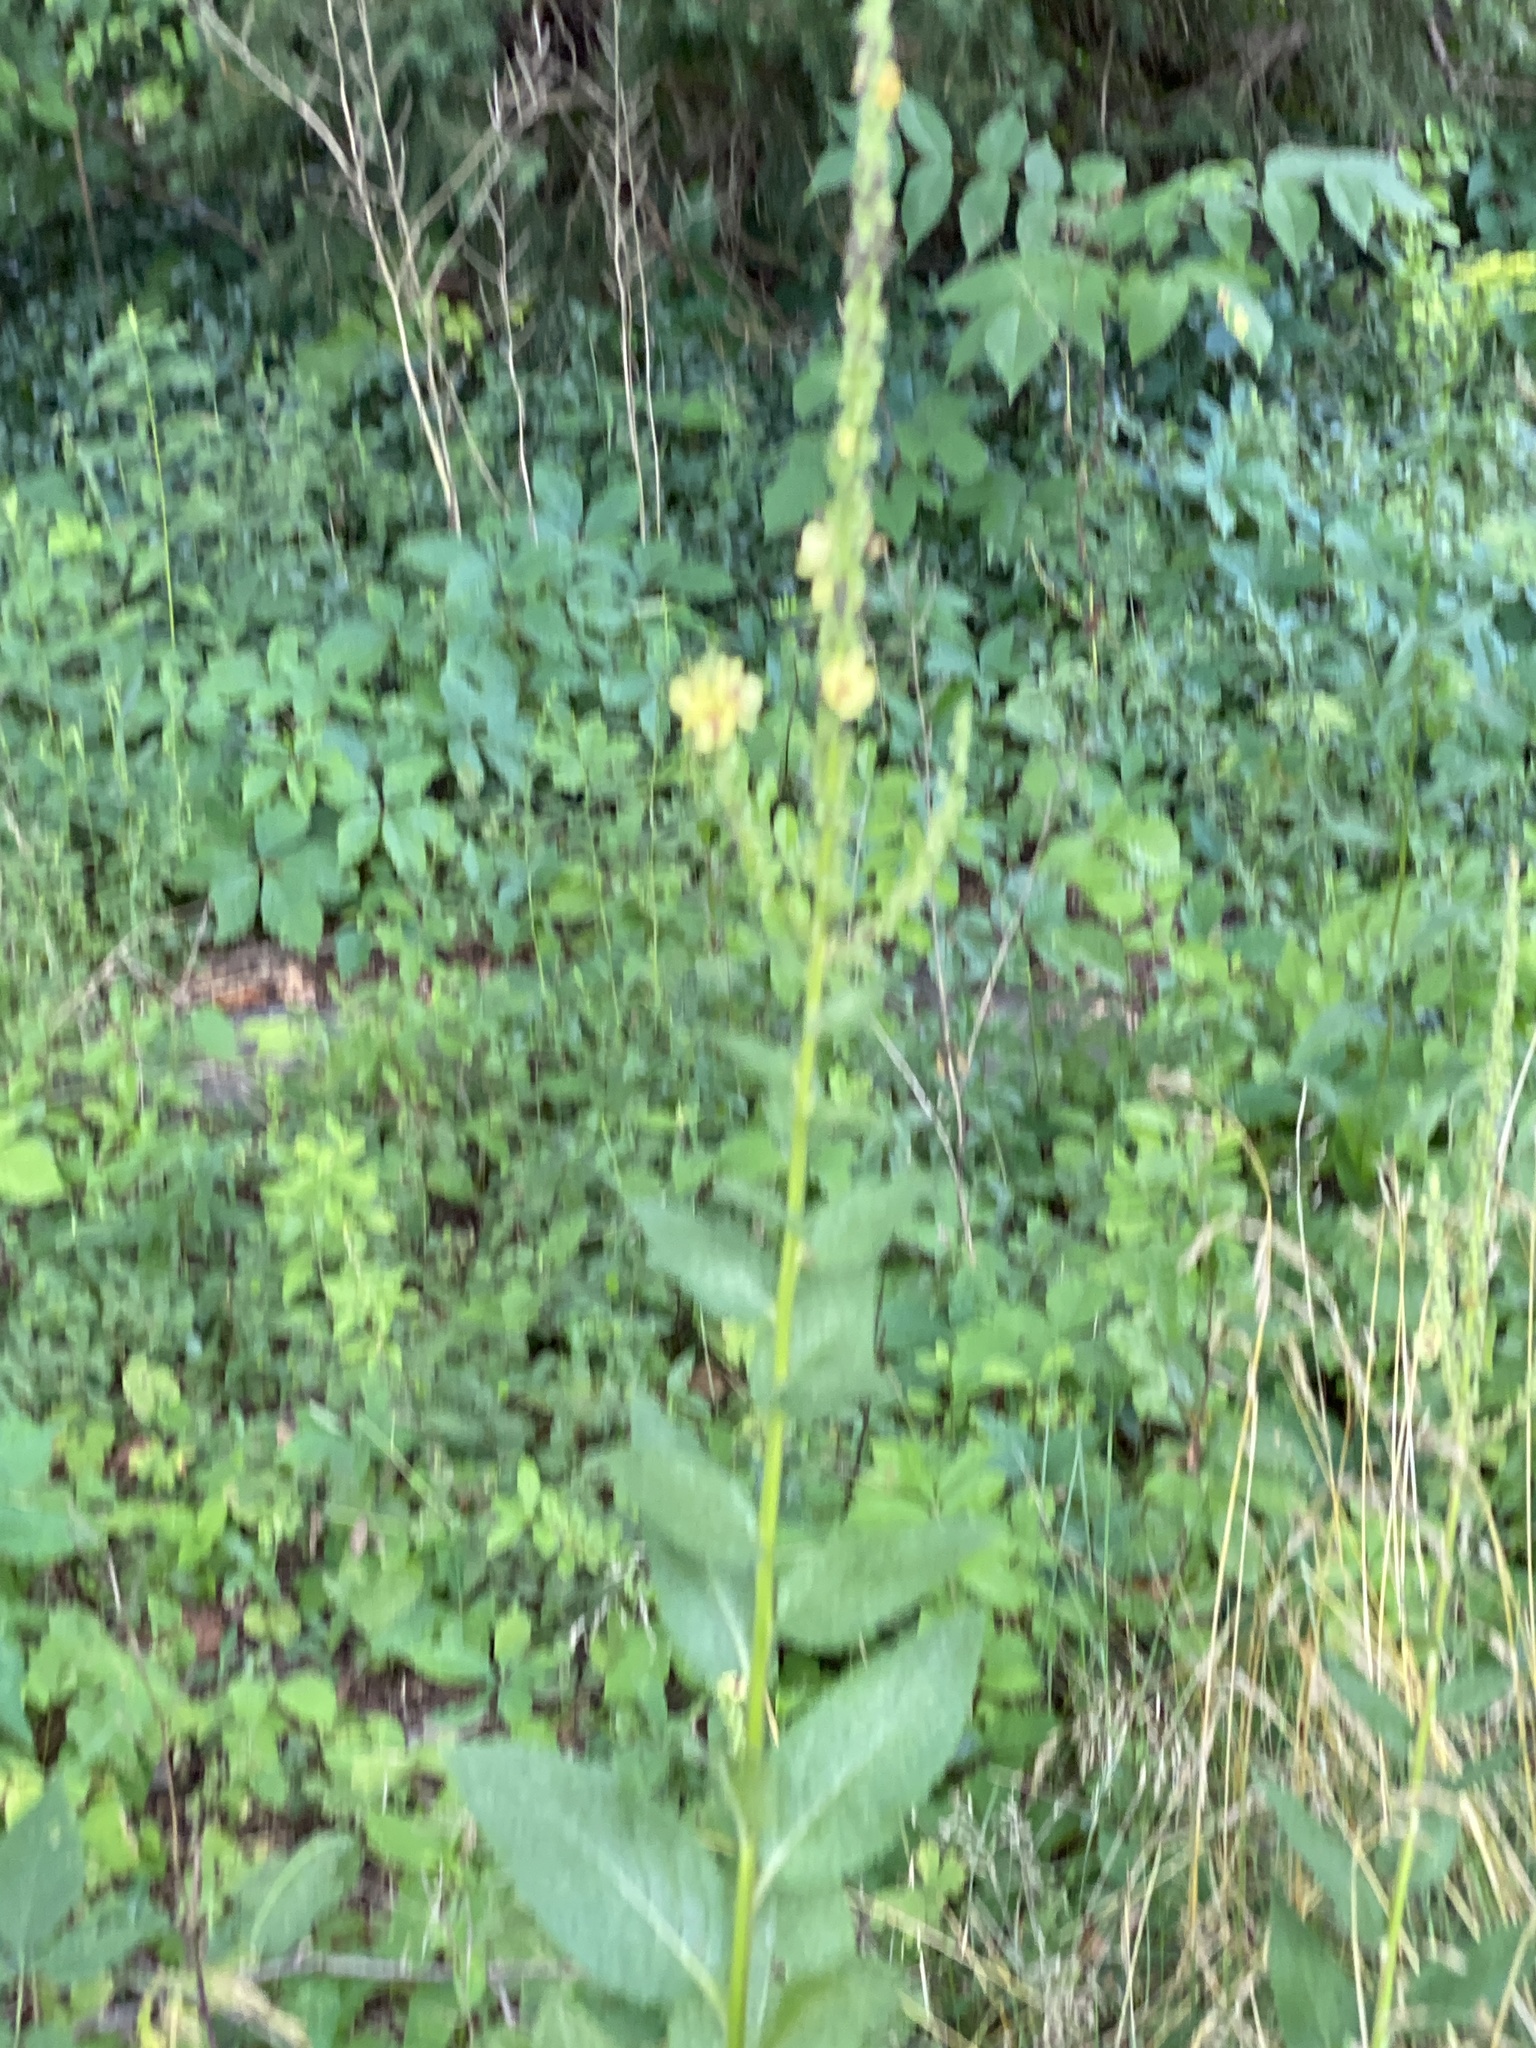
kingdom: Plantae
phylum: Tracheophyta
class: Magnoliopsida
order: Lamiales
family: Scrophulariaceae
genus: Verbascum
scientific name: Verbascum nigrum
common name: Dark mullein
